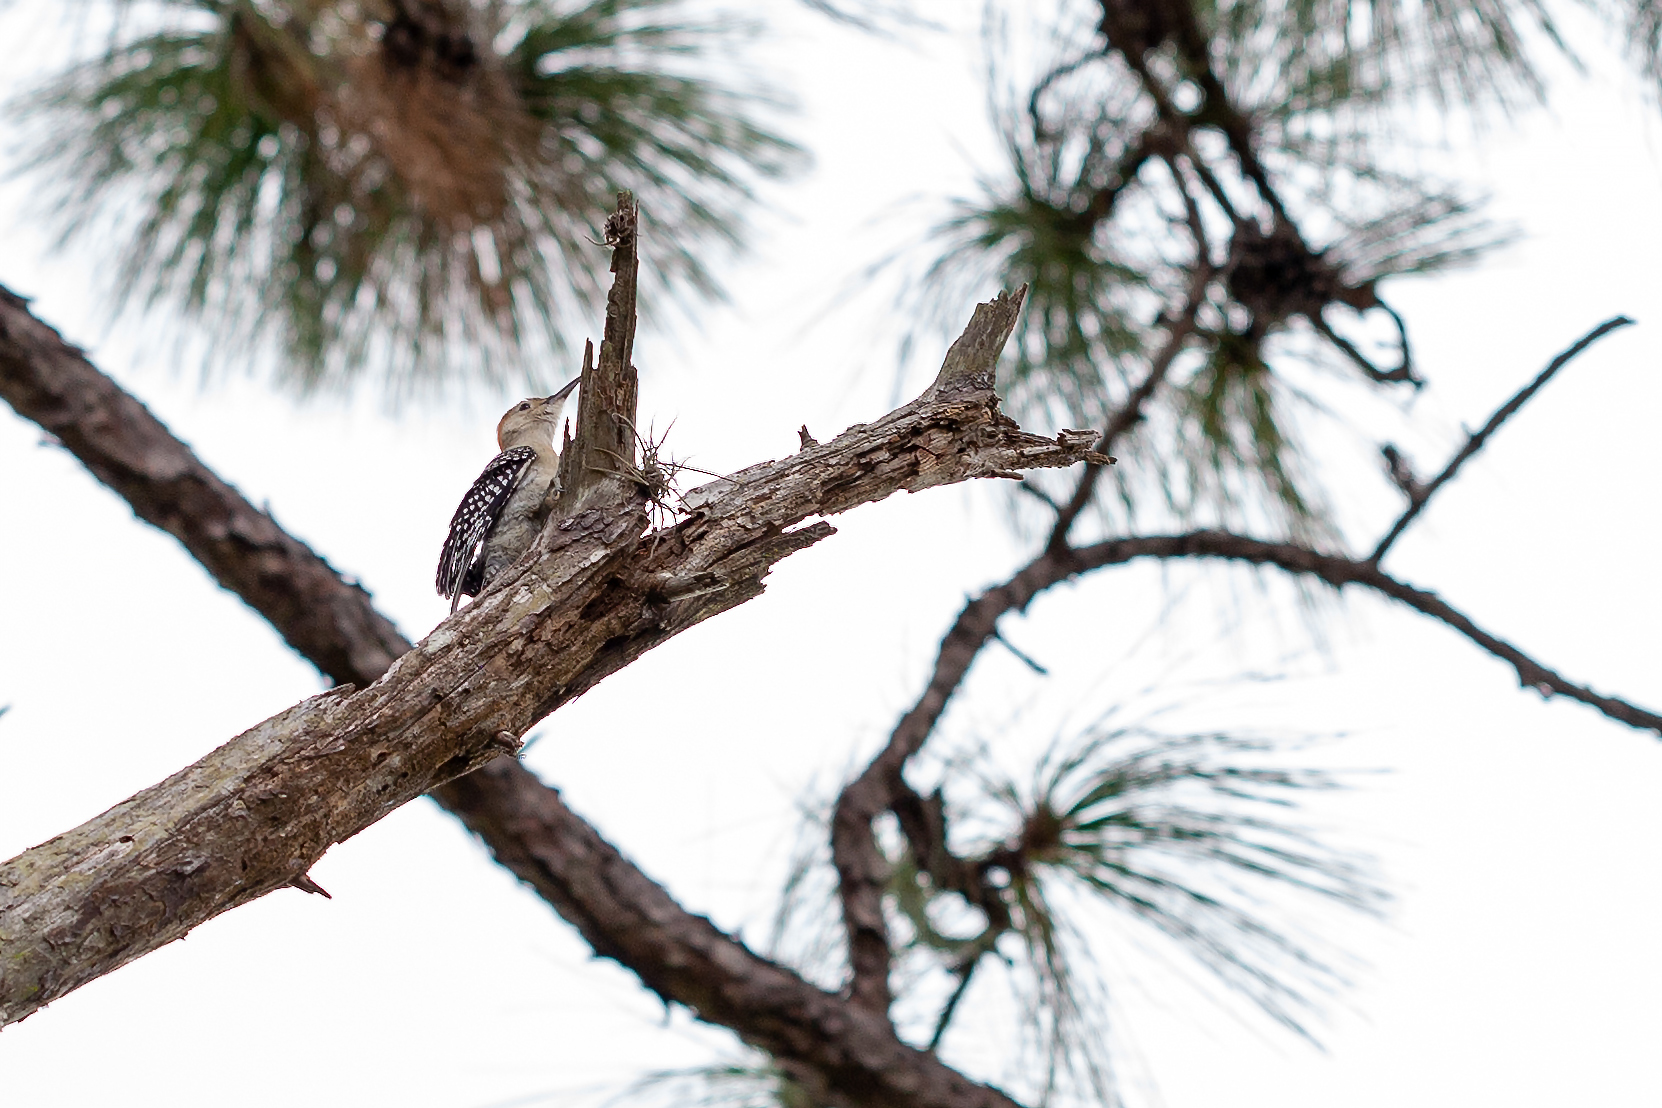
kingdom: Animalia
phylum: Chordata
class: Aves
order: Piciformes
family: Picidae
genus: Melanerpes
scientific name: Melanerpes carolinus
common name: Red-bellied woodpecker
